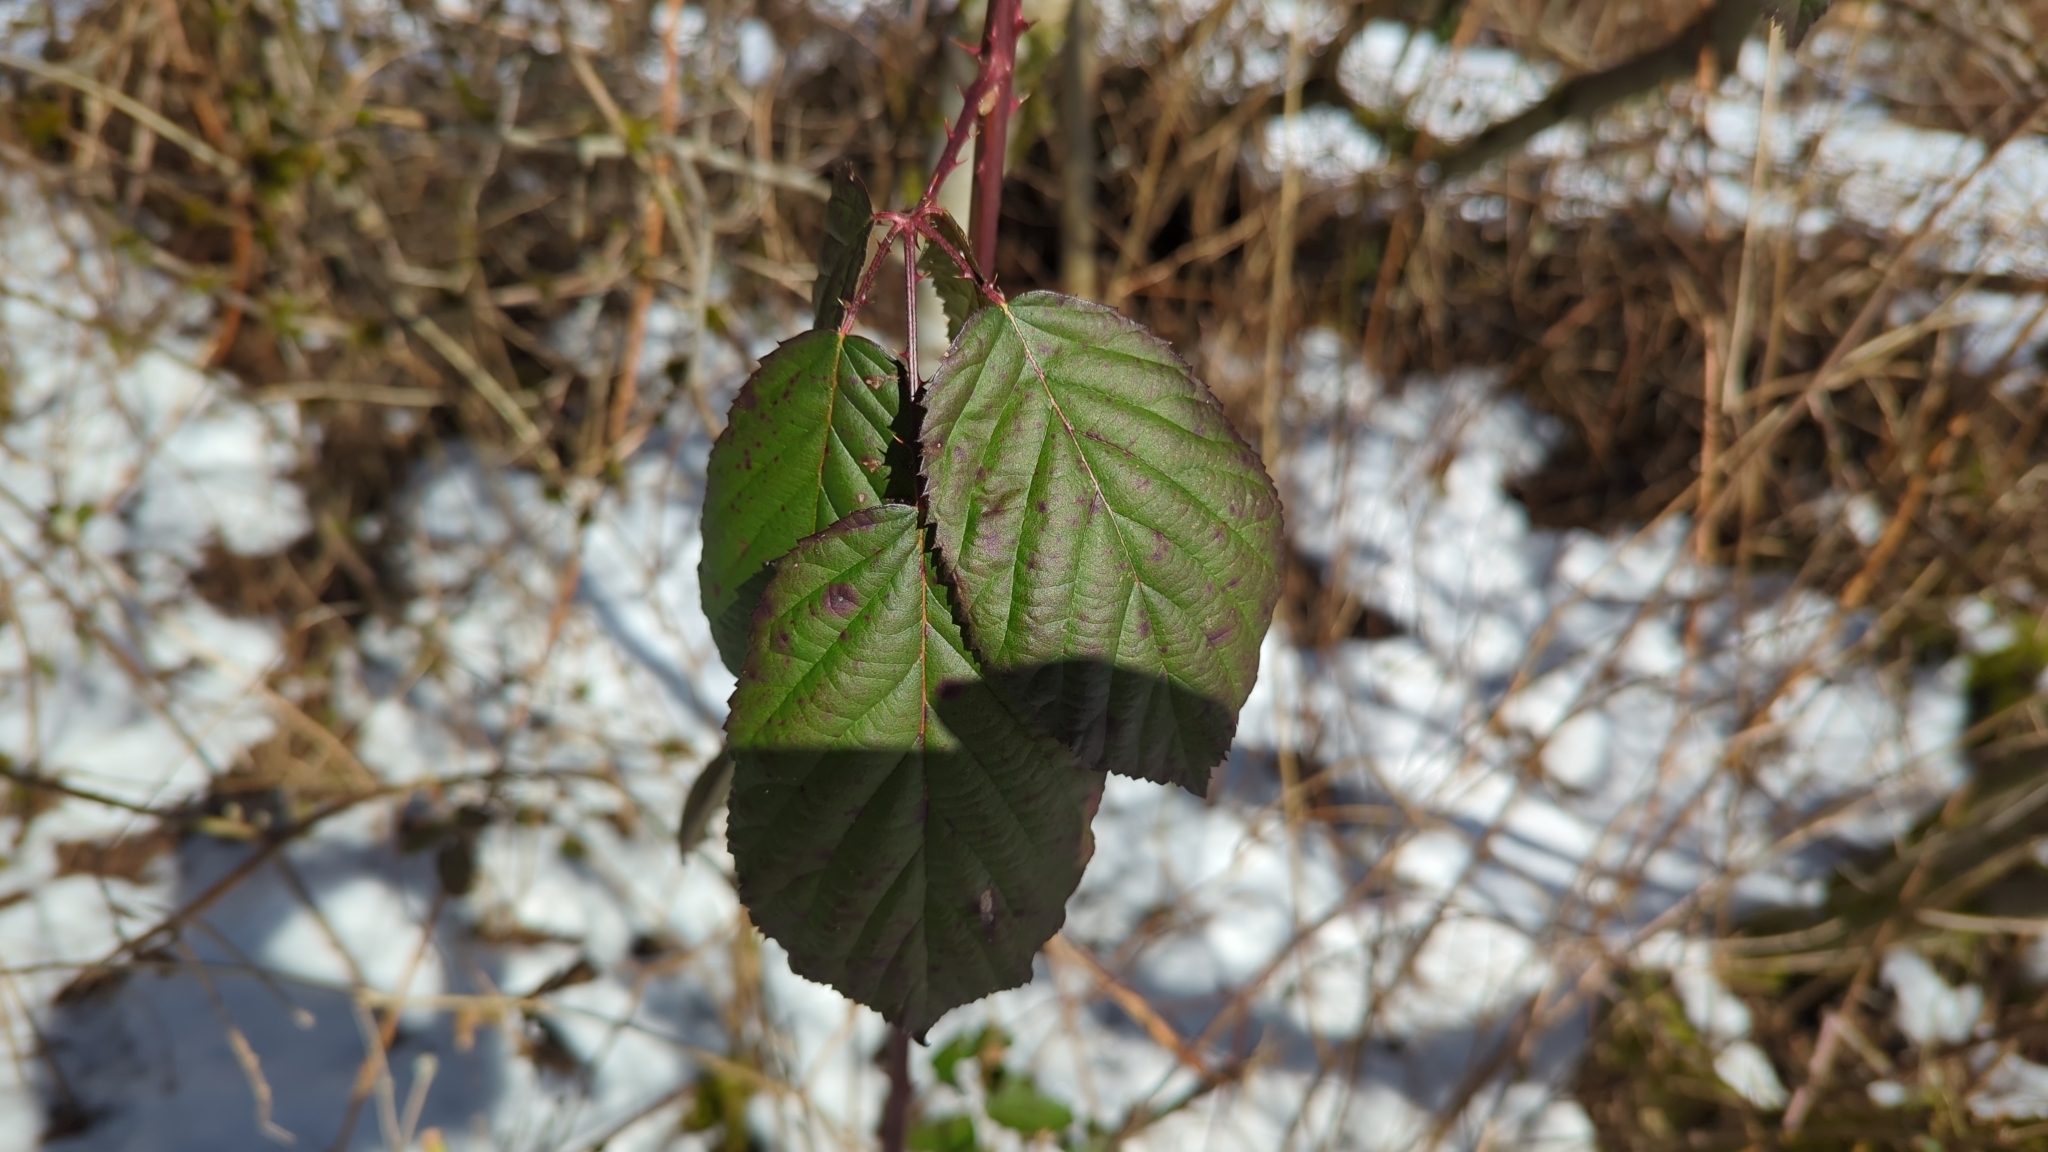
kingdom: Plantae
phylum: Tracheophyta
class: Magnoliopsida
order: Rosales
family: Rosaceae
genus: Rubus
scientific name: Rubus bifrons
